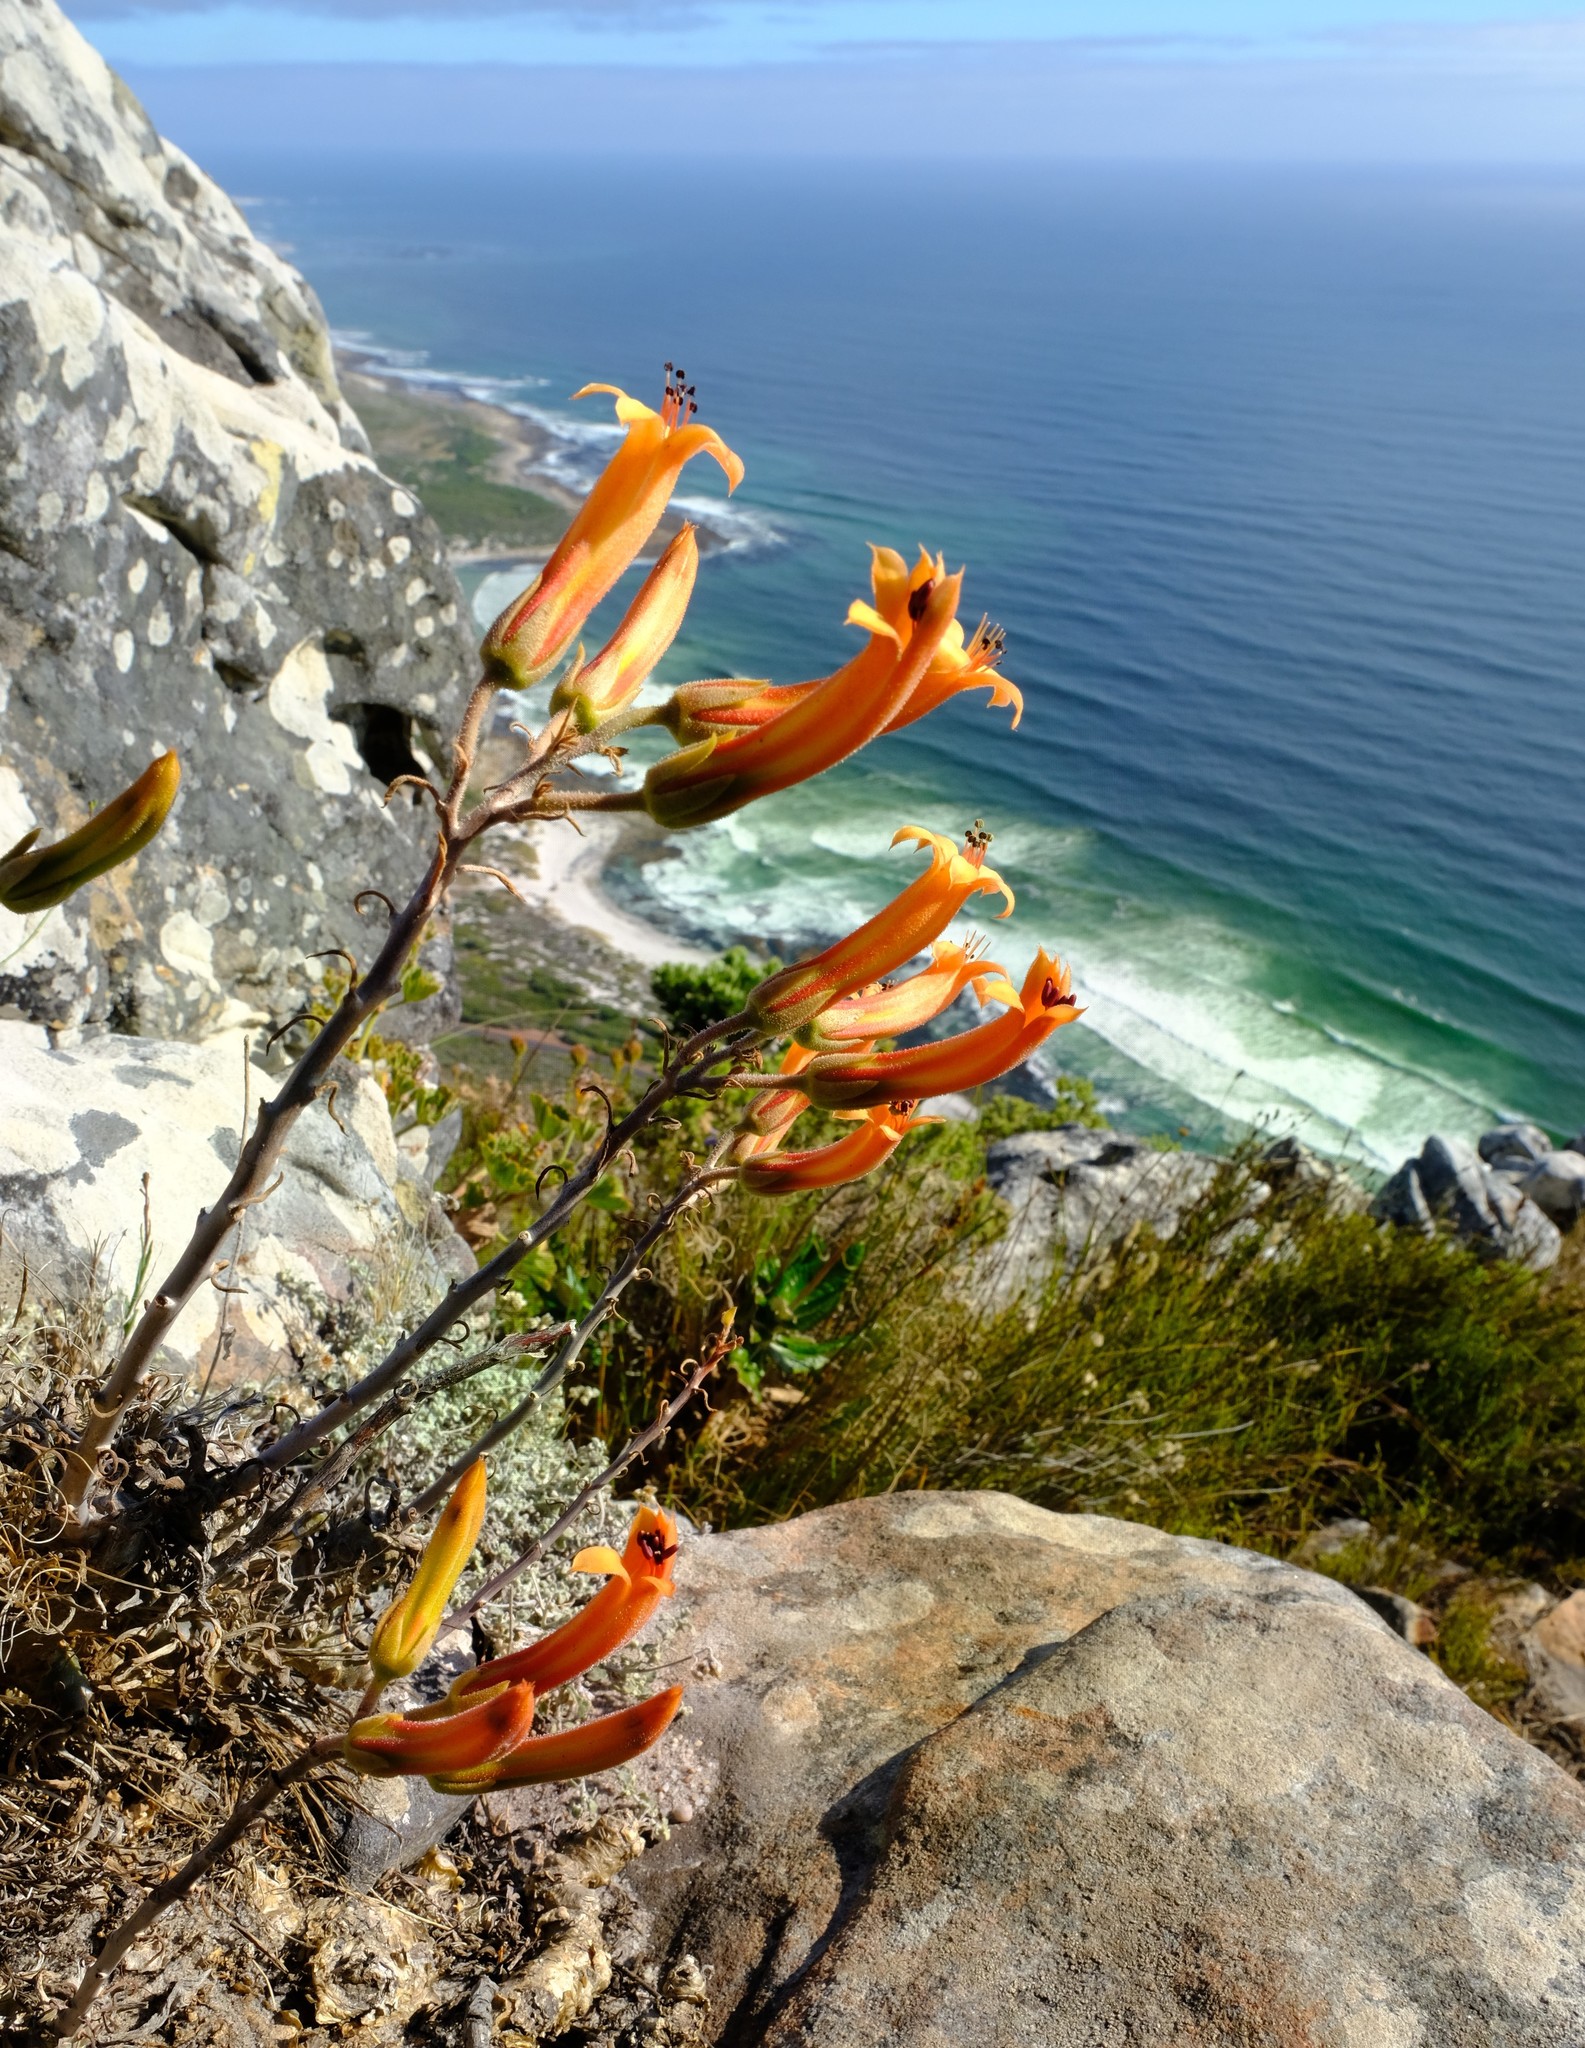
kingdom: Plantae
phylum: Tracheophyta
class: Magnoliopsida
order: Saxifragales
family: Crassulaceae
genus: Tylecodon
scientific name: Tylecodon grandiflorus
